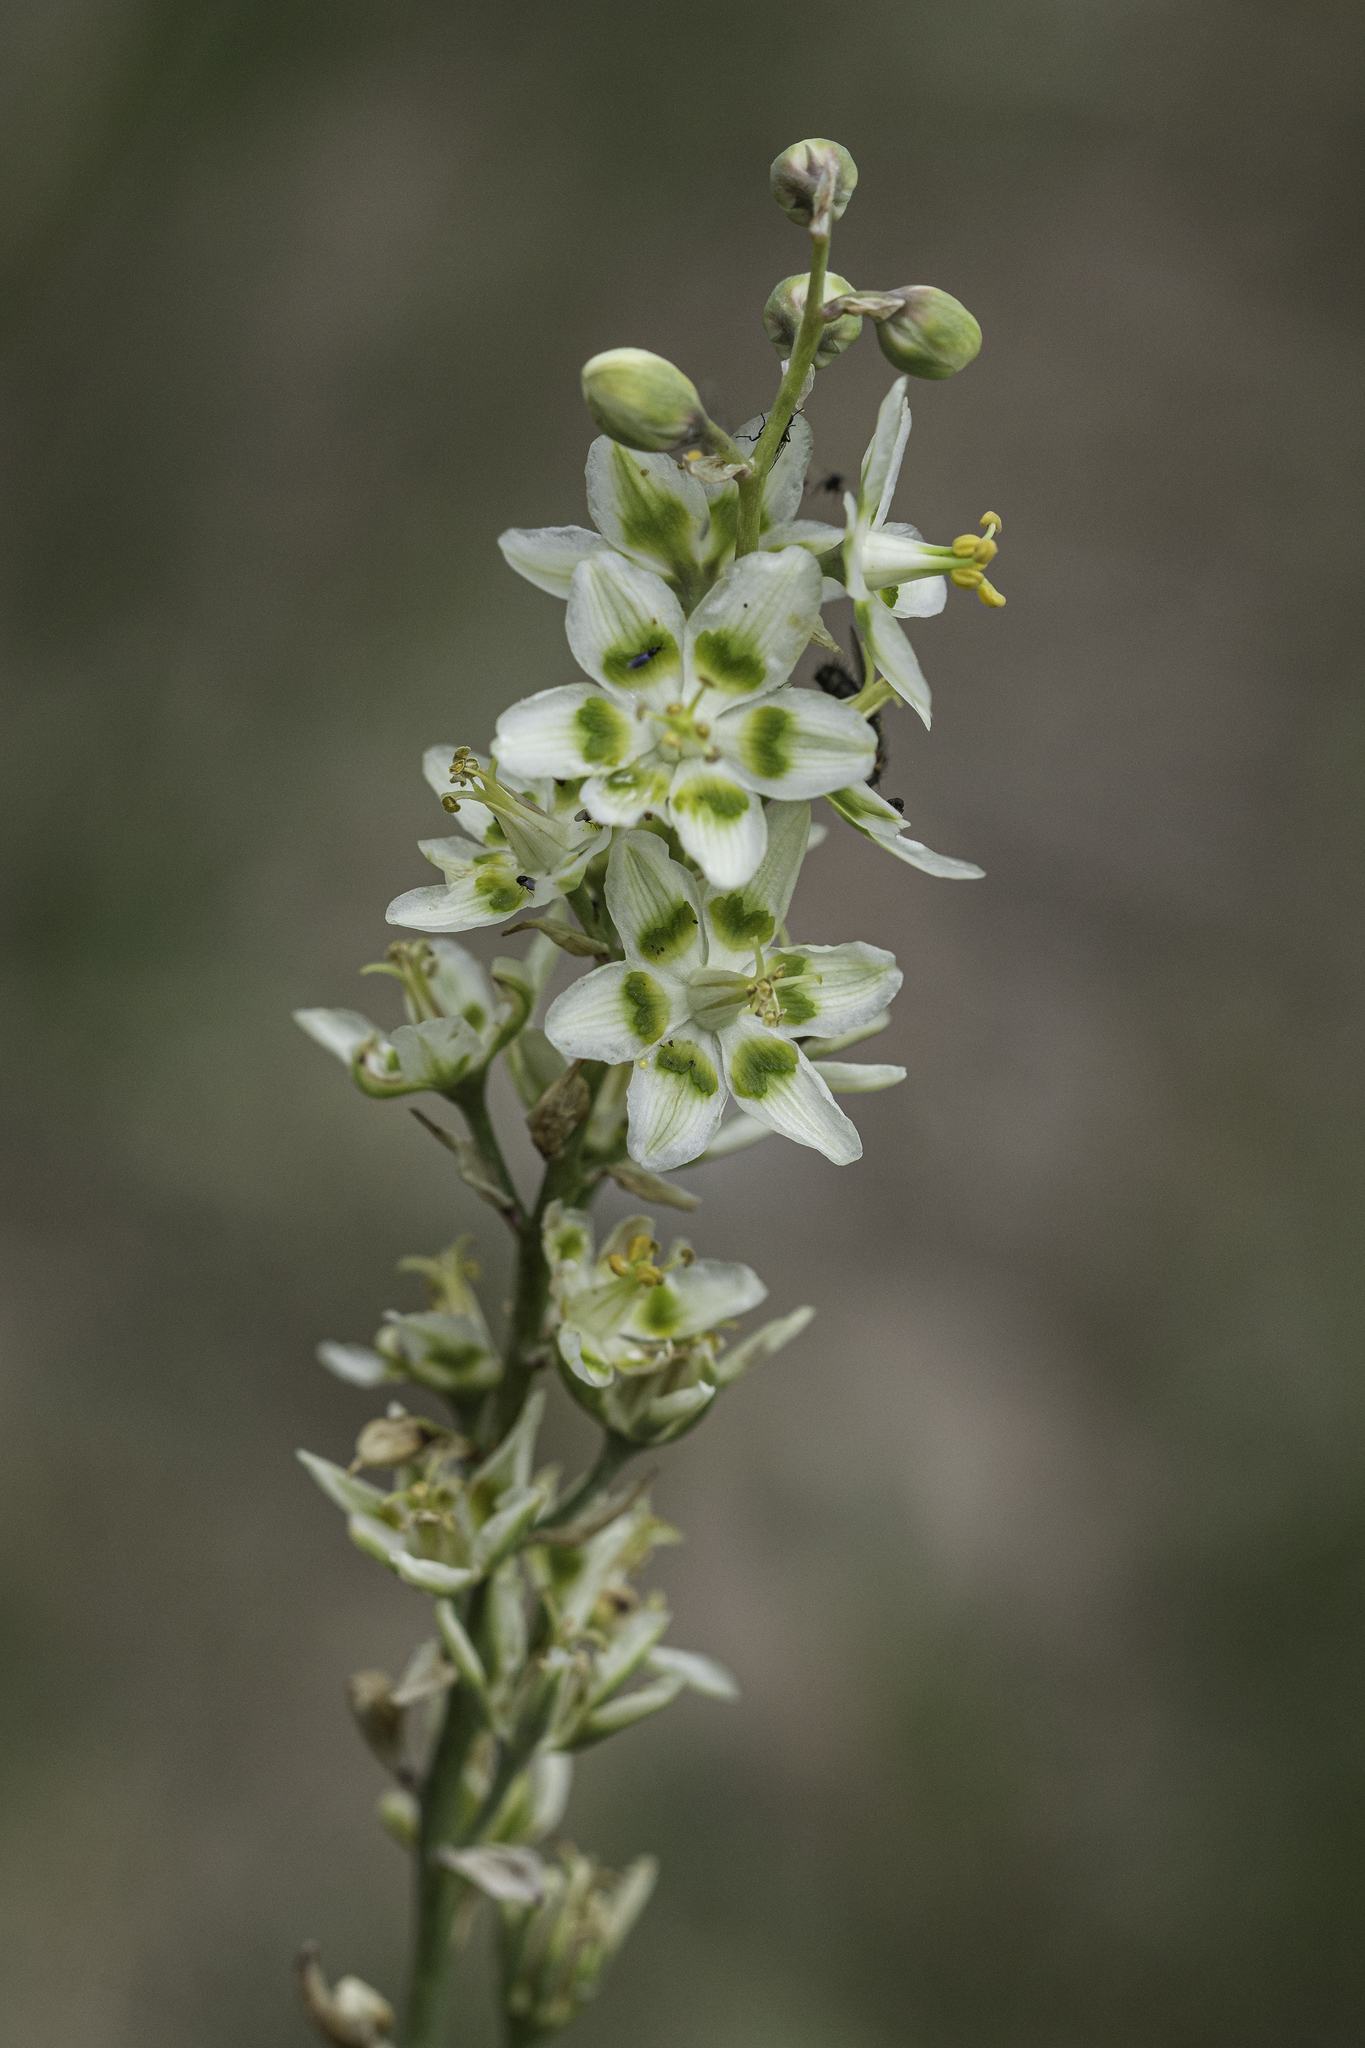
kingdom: Plantae
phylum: Tracheophyta
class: Liliopsida
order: Liliales
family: Melanthiaceae
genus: Anticlea
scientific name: Anticlea elegans
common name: Mountain death camas
